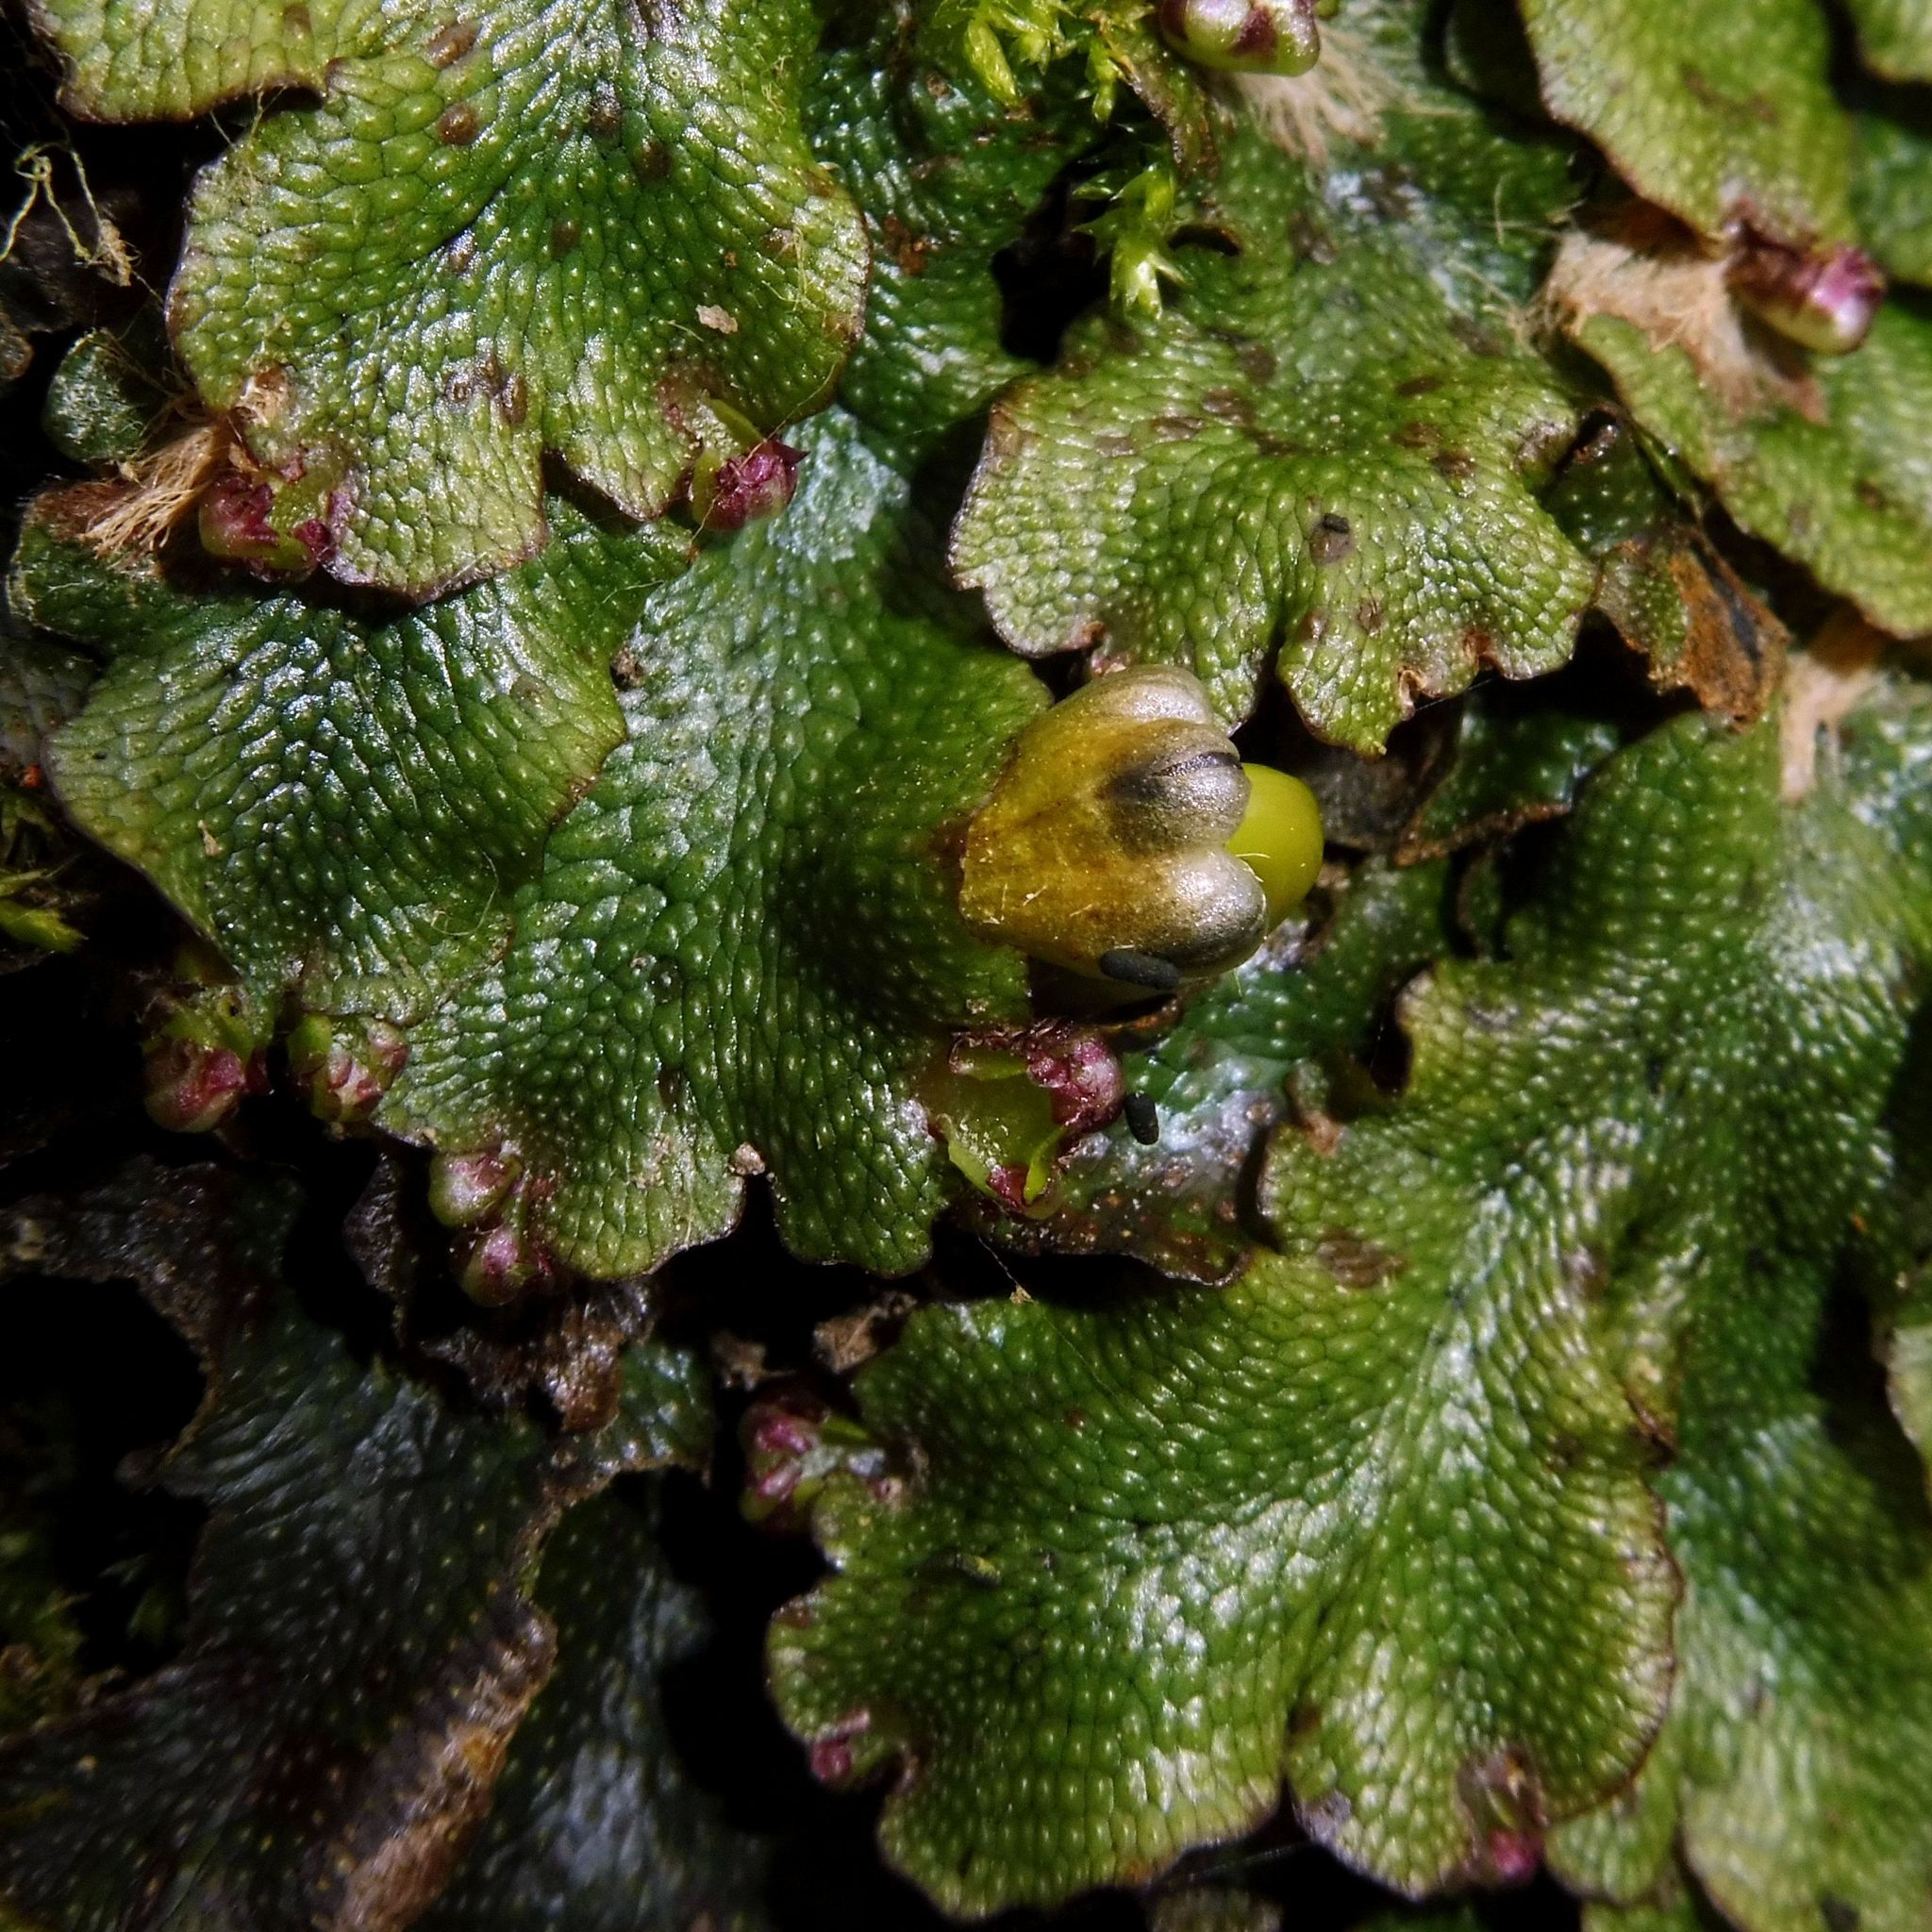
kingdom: Plantae
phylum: Marchantiophyta
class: Marchantiopsida
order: Marchantiales
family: Conocephalaceae
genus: Conocephalum
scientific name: Conocephalum conicum
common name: Great scented liverwort
